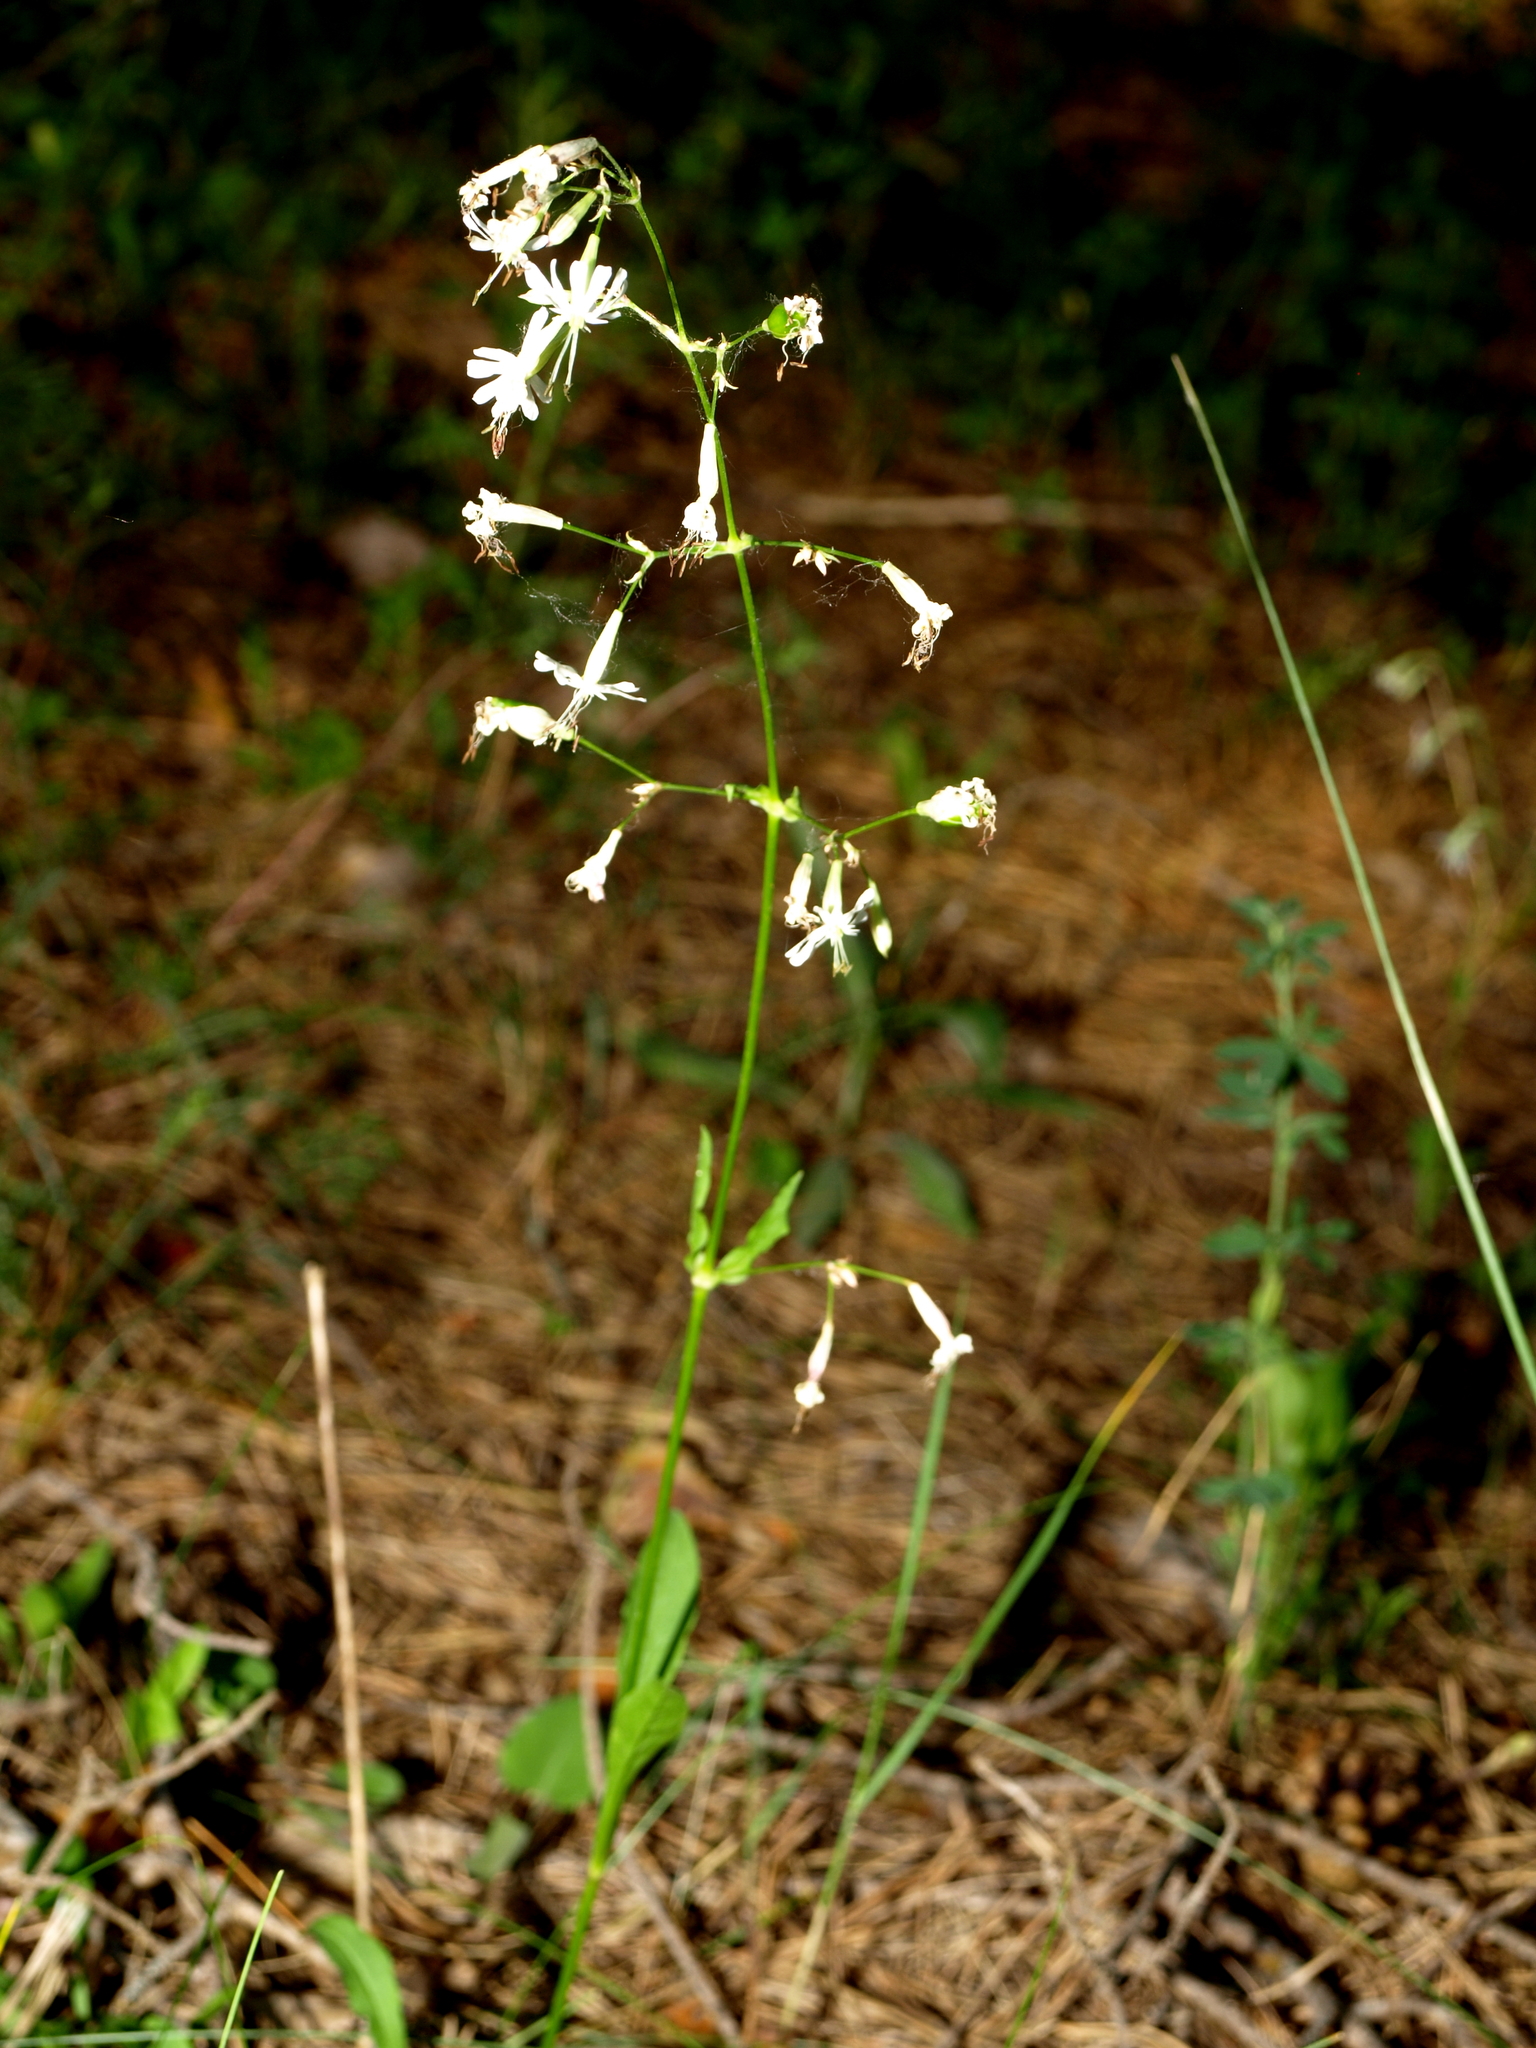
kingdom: Plantae
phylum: Tracheophyta
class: Magnoliopsida
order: Caryophyllales
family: Caryophyllaceae
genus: Silene
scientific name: Silene nutans
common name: Nottingham catchfly
